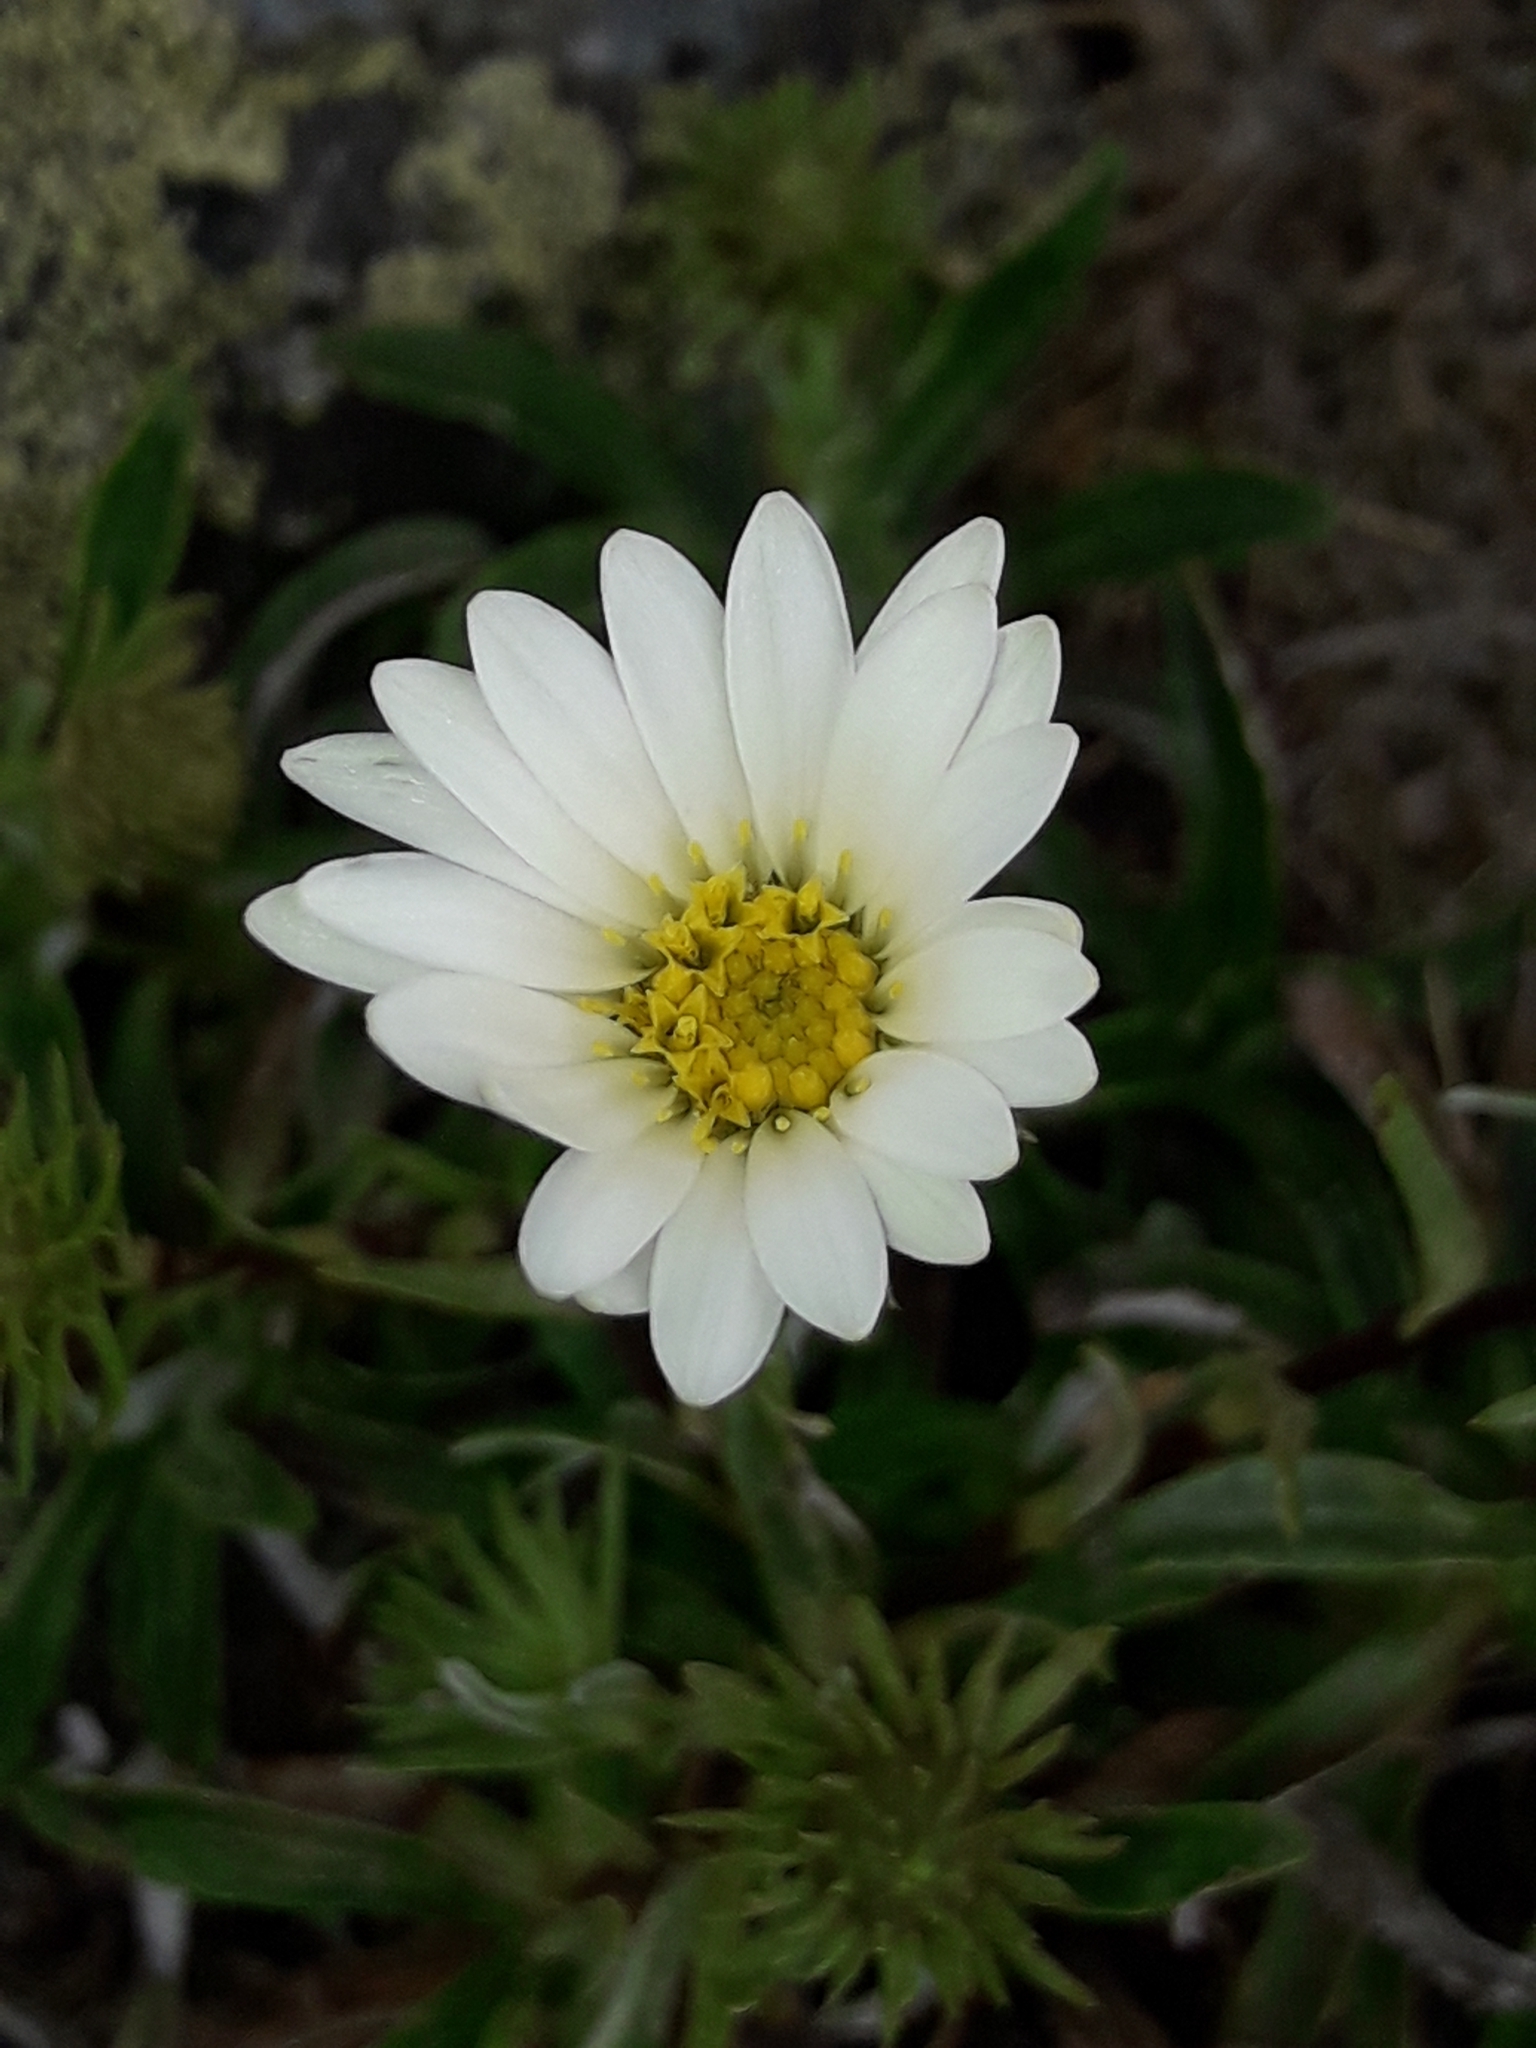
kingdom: Plantae
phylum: Tracheophyta
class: Magnoliopsida
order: Asterales
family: Asteraceae
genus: Celmisia
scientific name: Celmisia angustifolia
